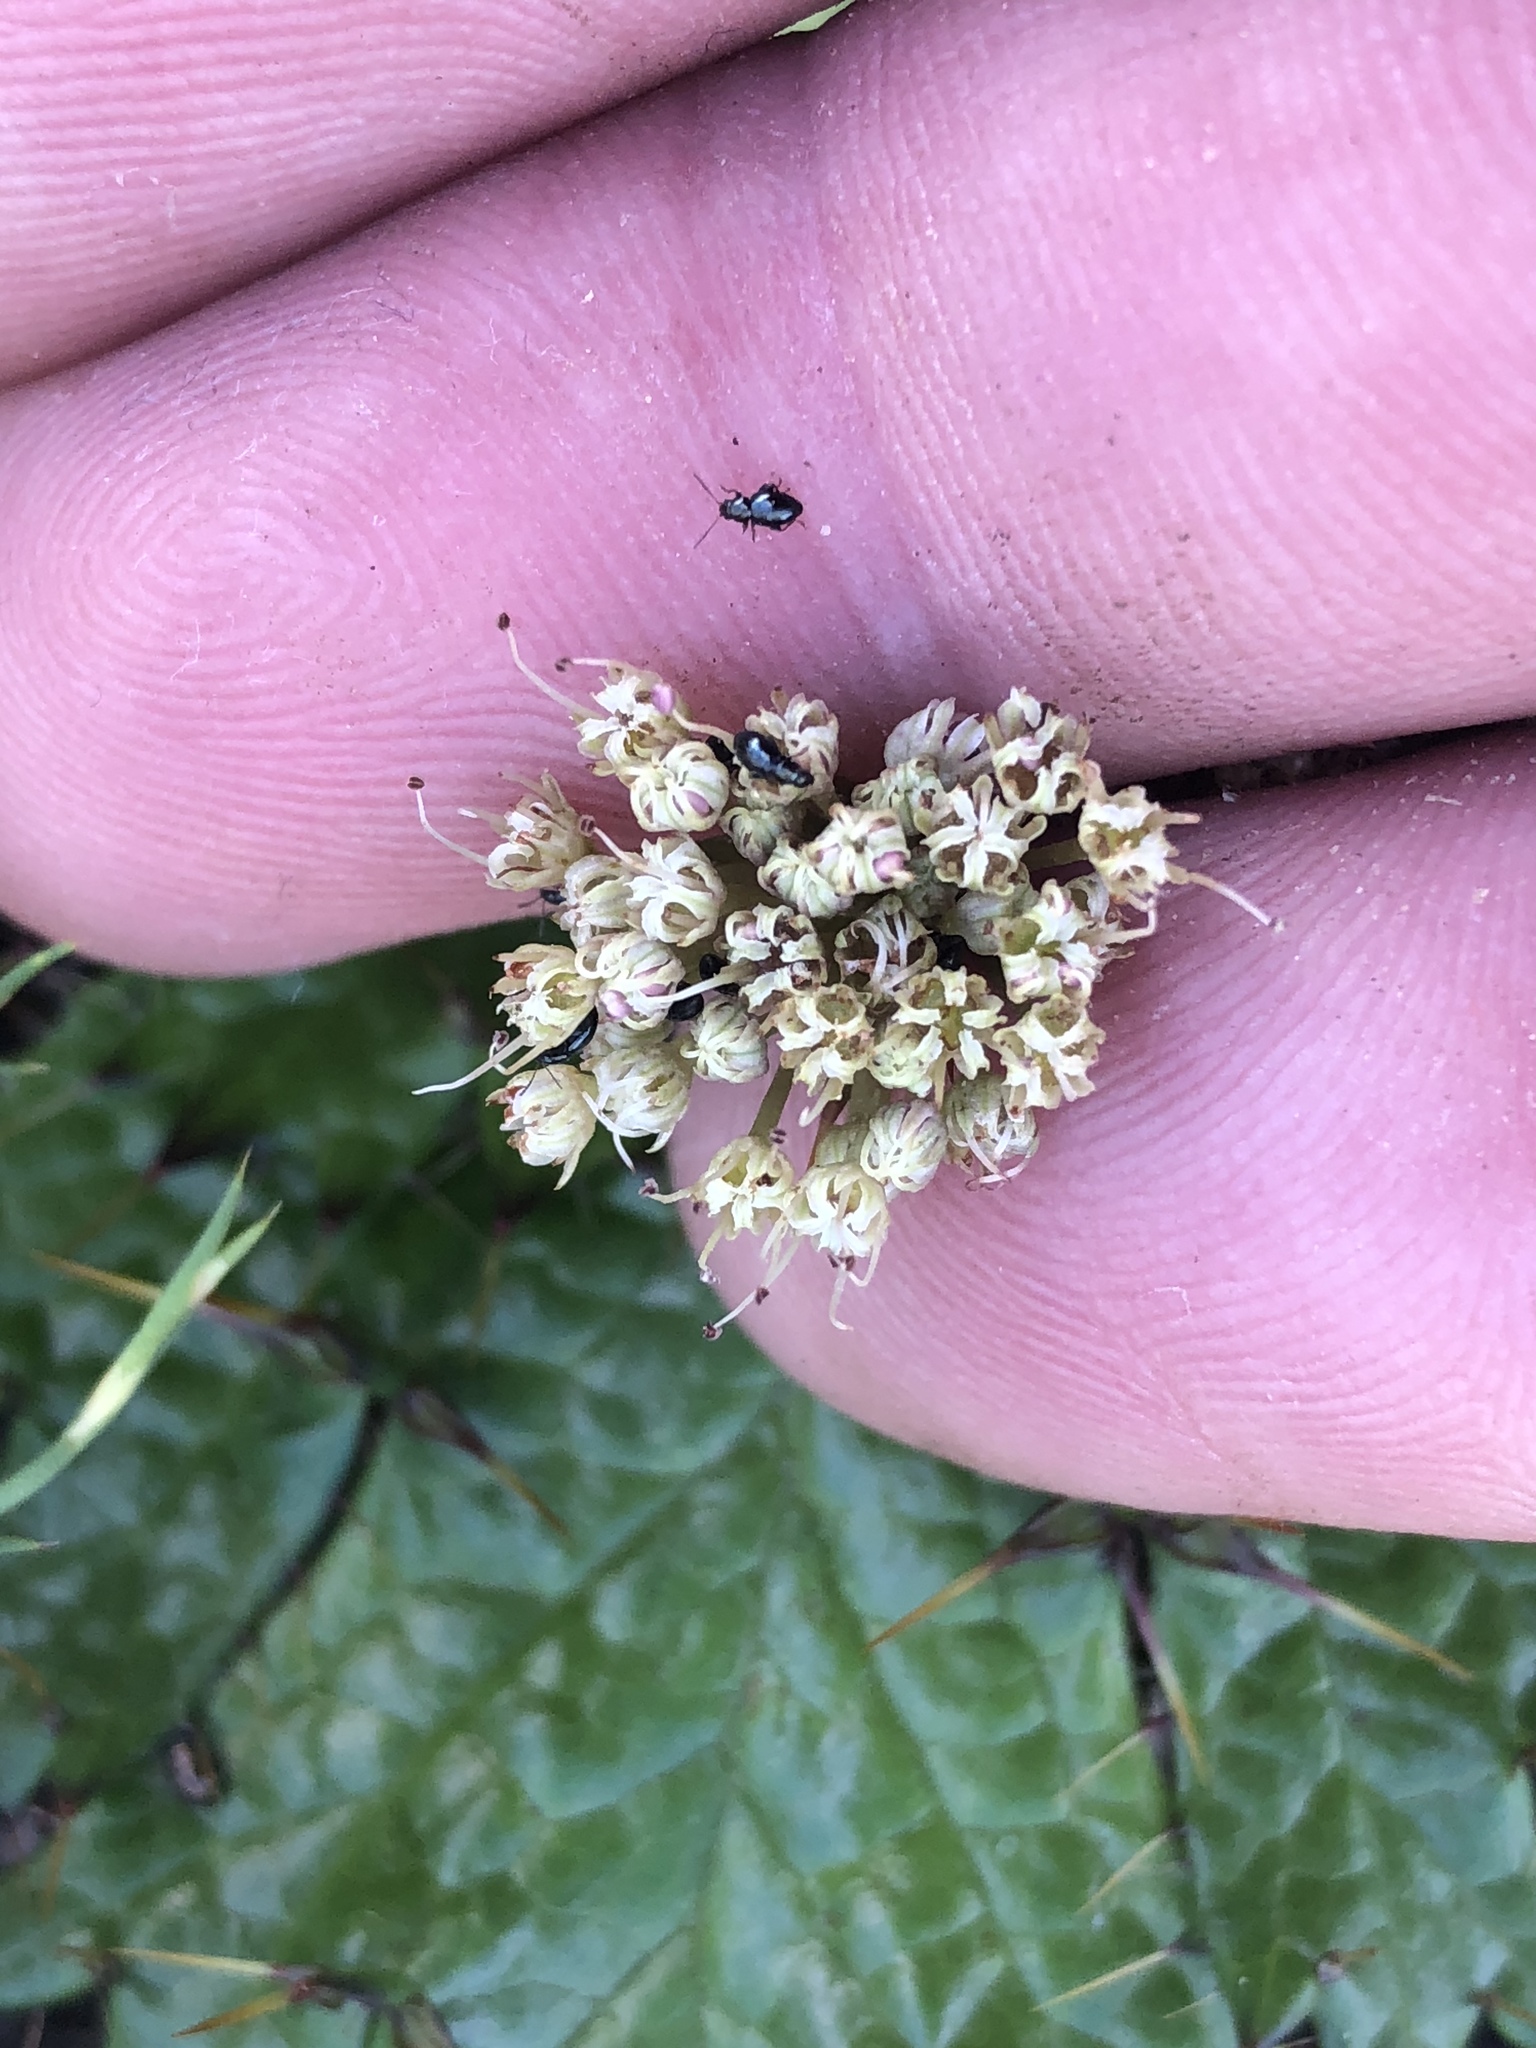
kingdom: Plantae
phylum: Tracheophyta
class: Magnoliopsida
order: Apiales
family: Apiaceae
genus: Arctopus
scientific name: Arctopus echinatus
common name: Platdoring
